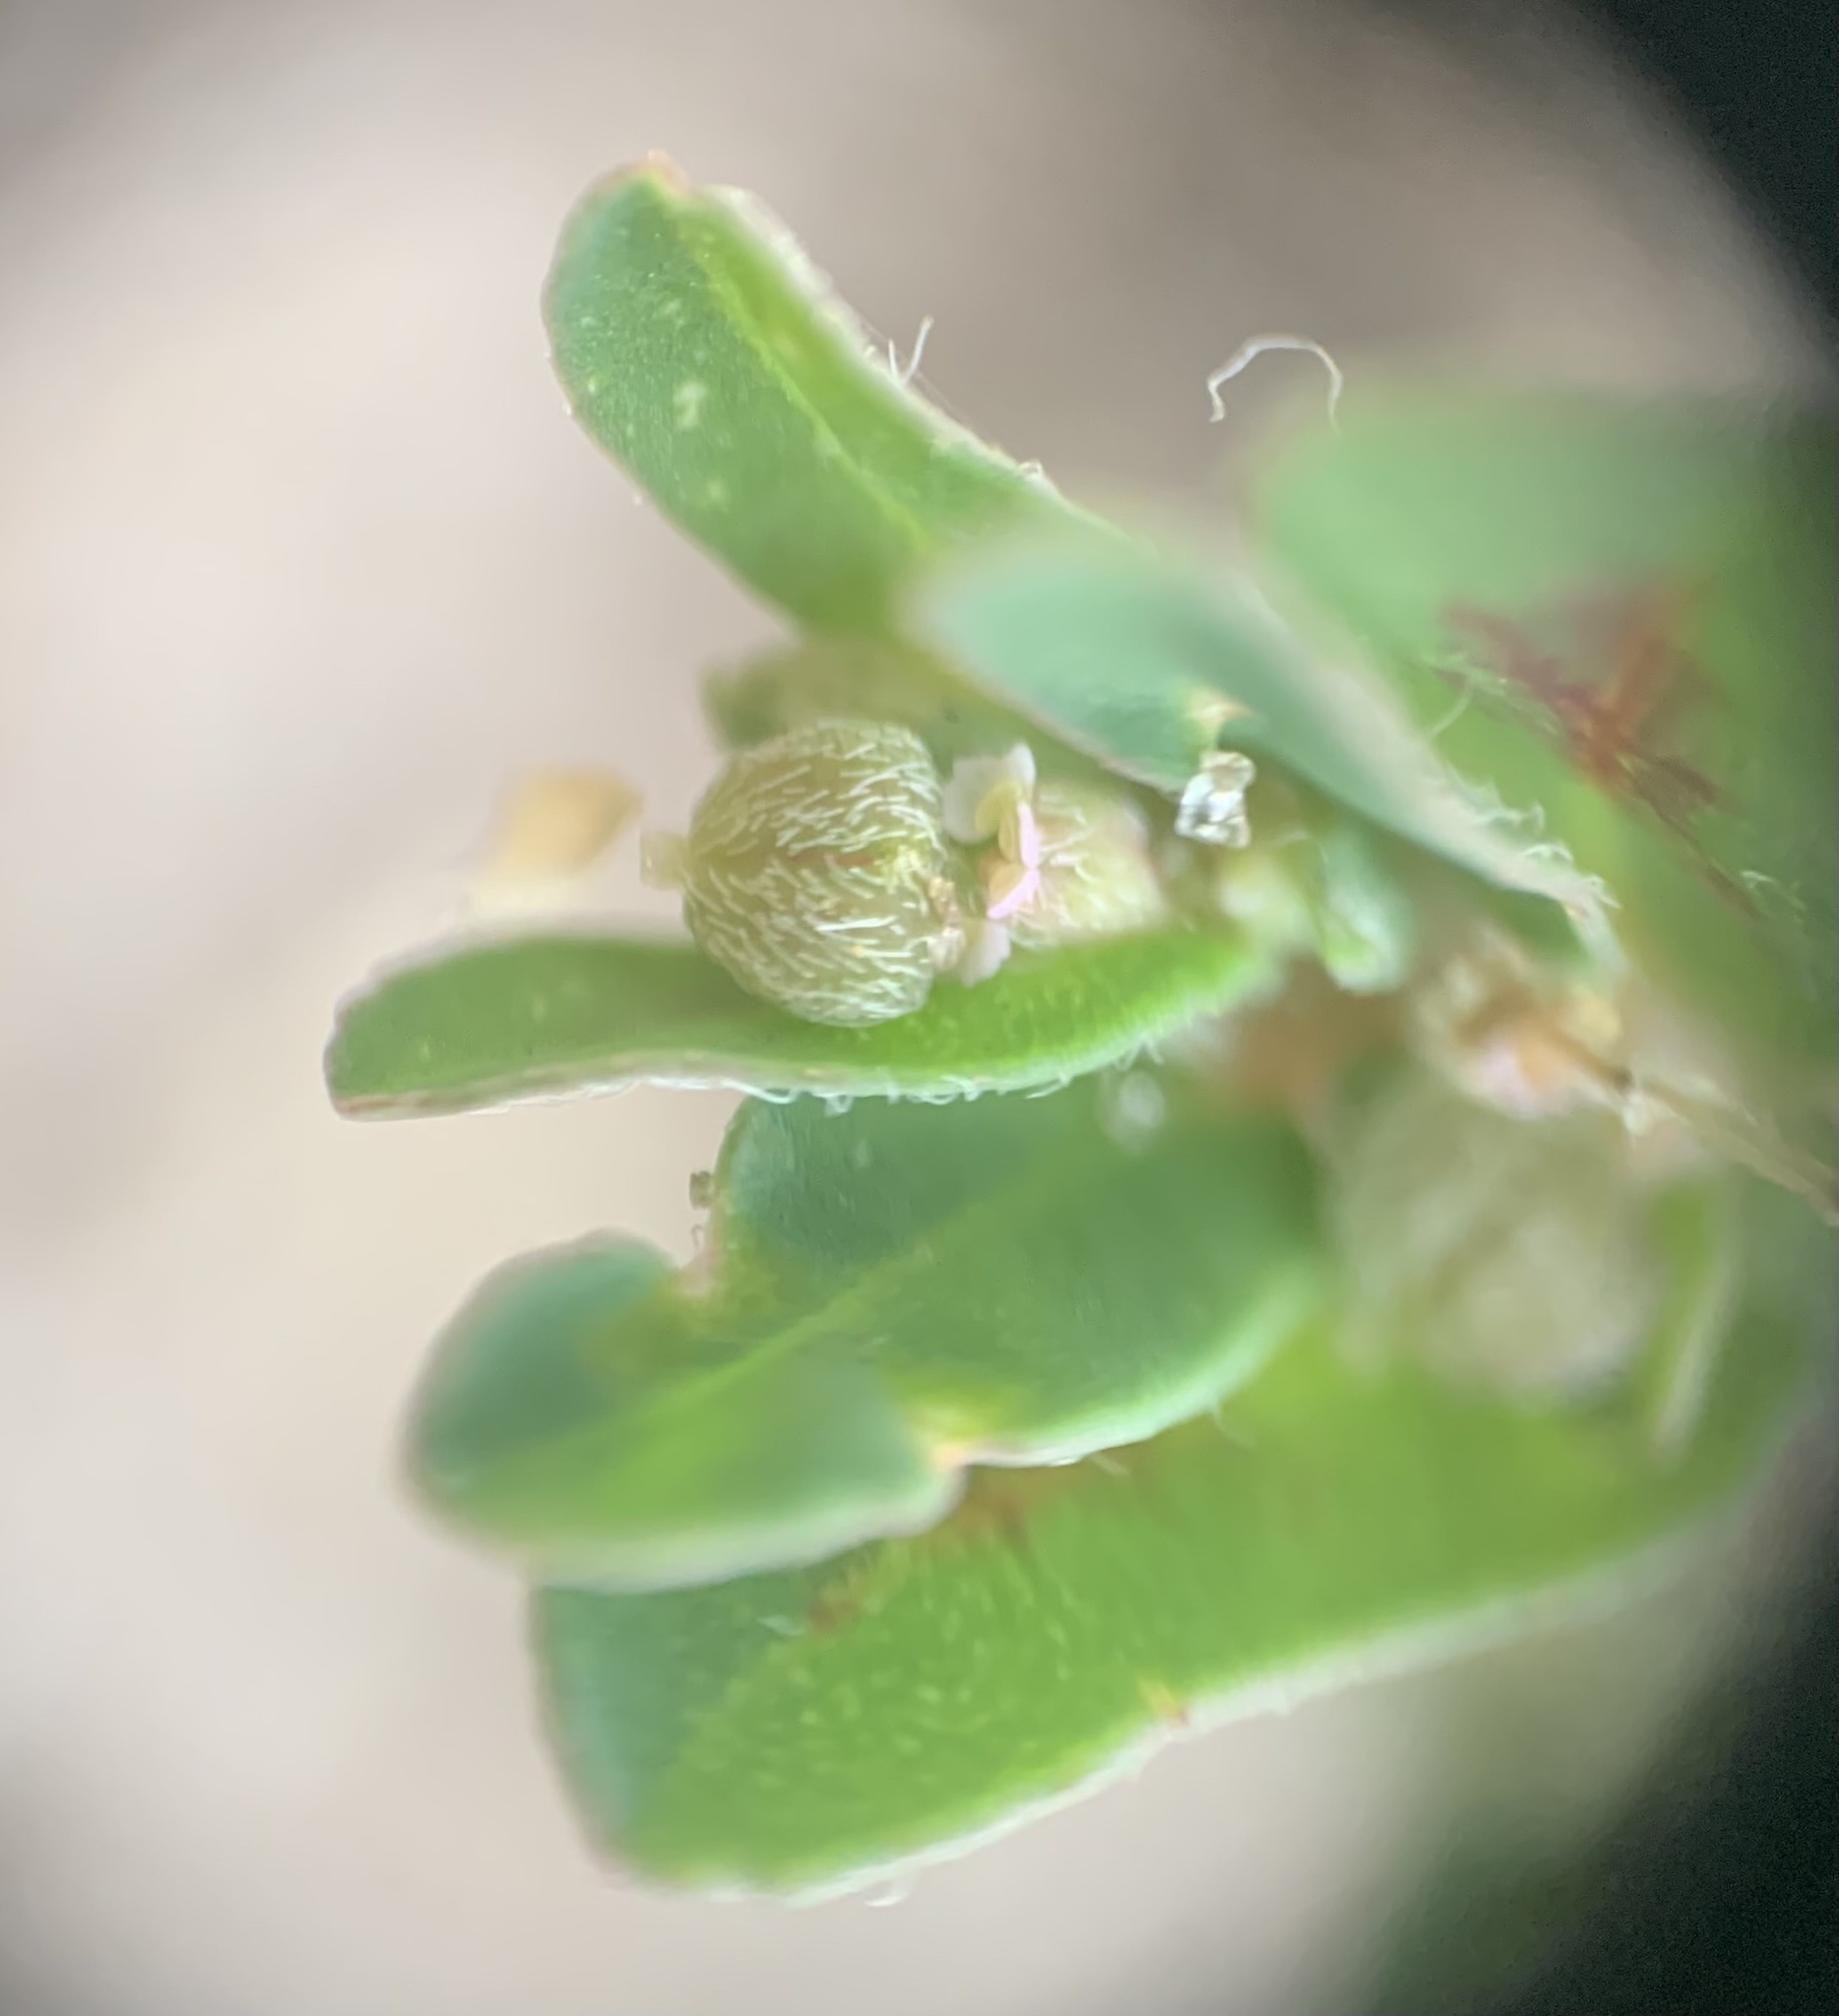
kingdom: Plantae
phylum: Tracheophyta
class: Magnoliopsida
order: Malpighiales
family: Euphorbiaceae
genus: Euphorbia
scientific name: Euphorbia maculata
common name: Spotted spurge
